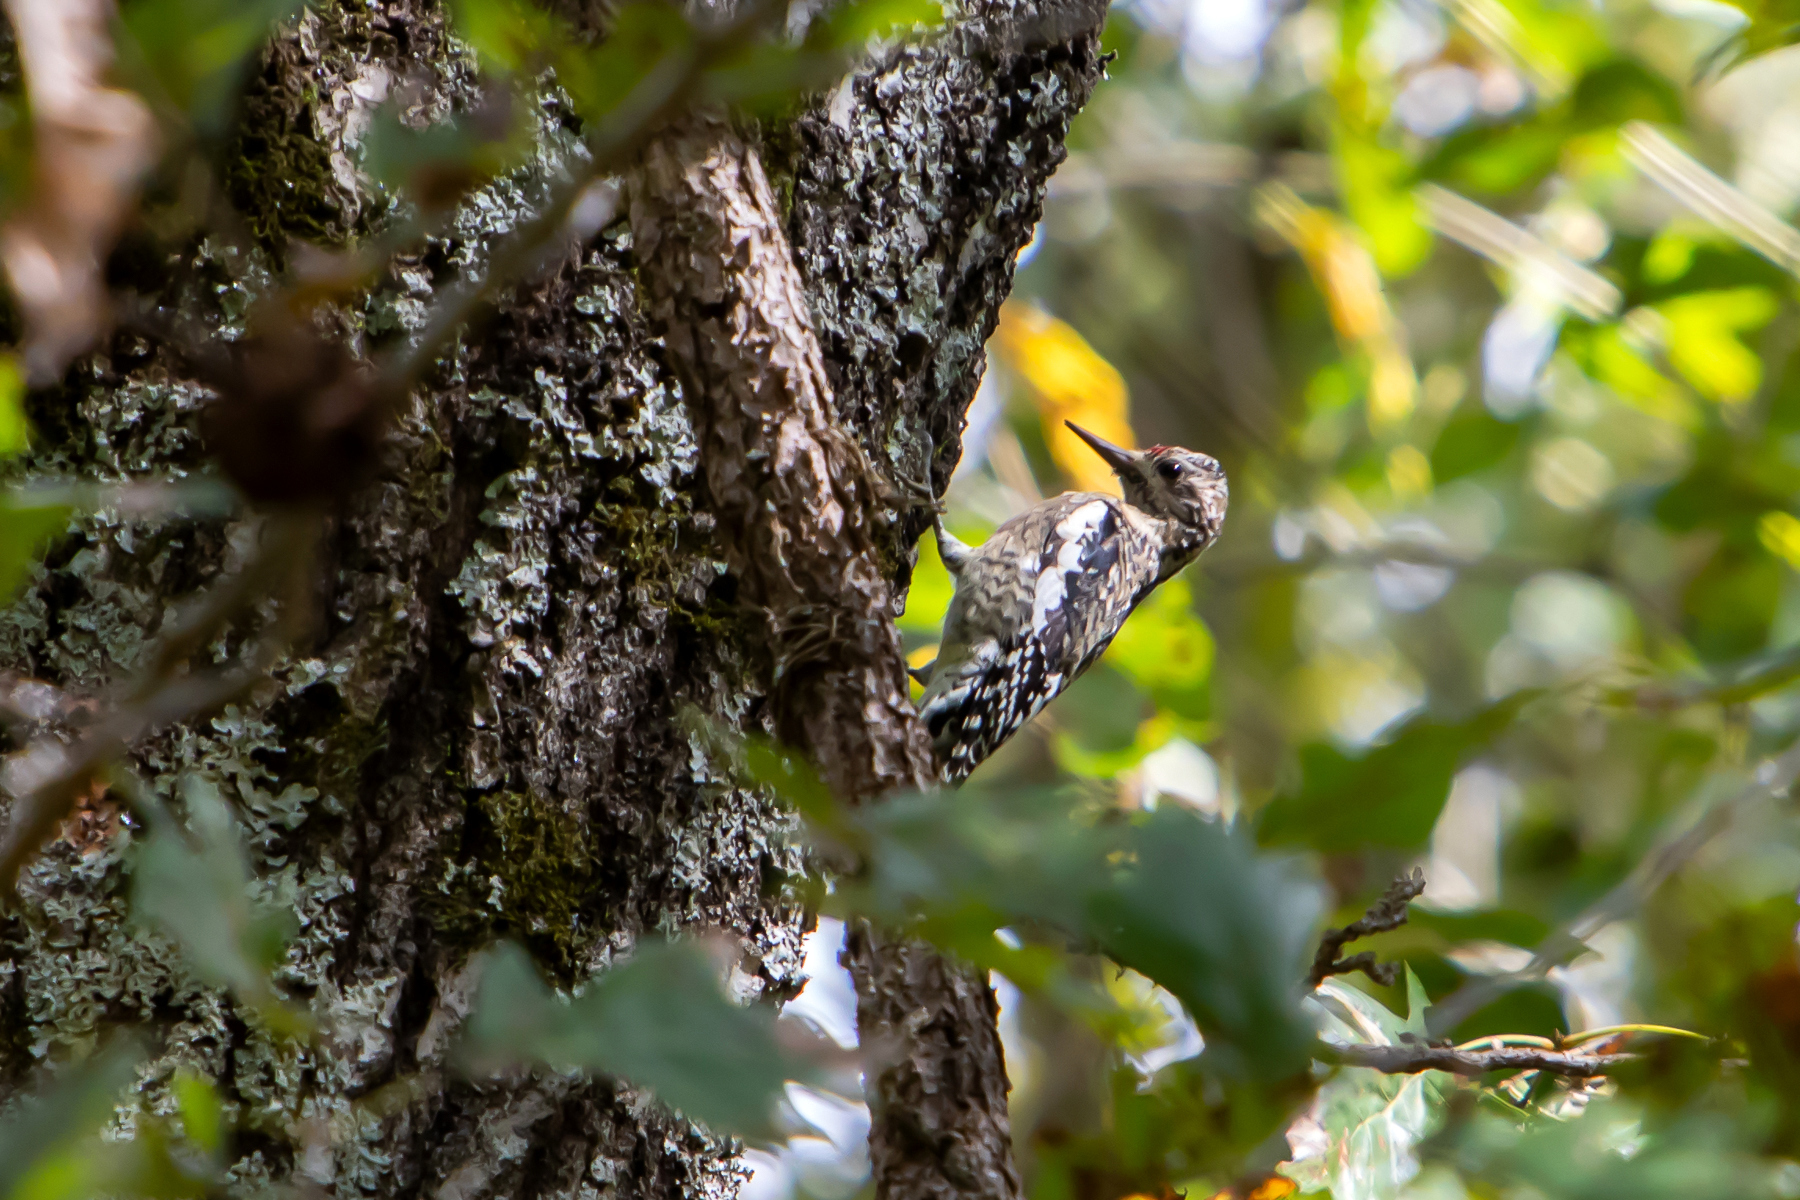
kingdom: Animalia
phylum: Chordata
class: Aves
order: Piciformes
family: Picidae
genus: Sphyrapicus
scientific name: Sphyrapicus varius
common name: Yellow-bellied sapsucker
